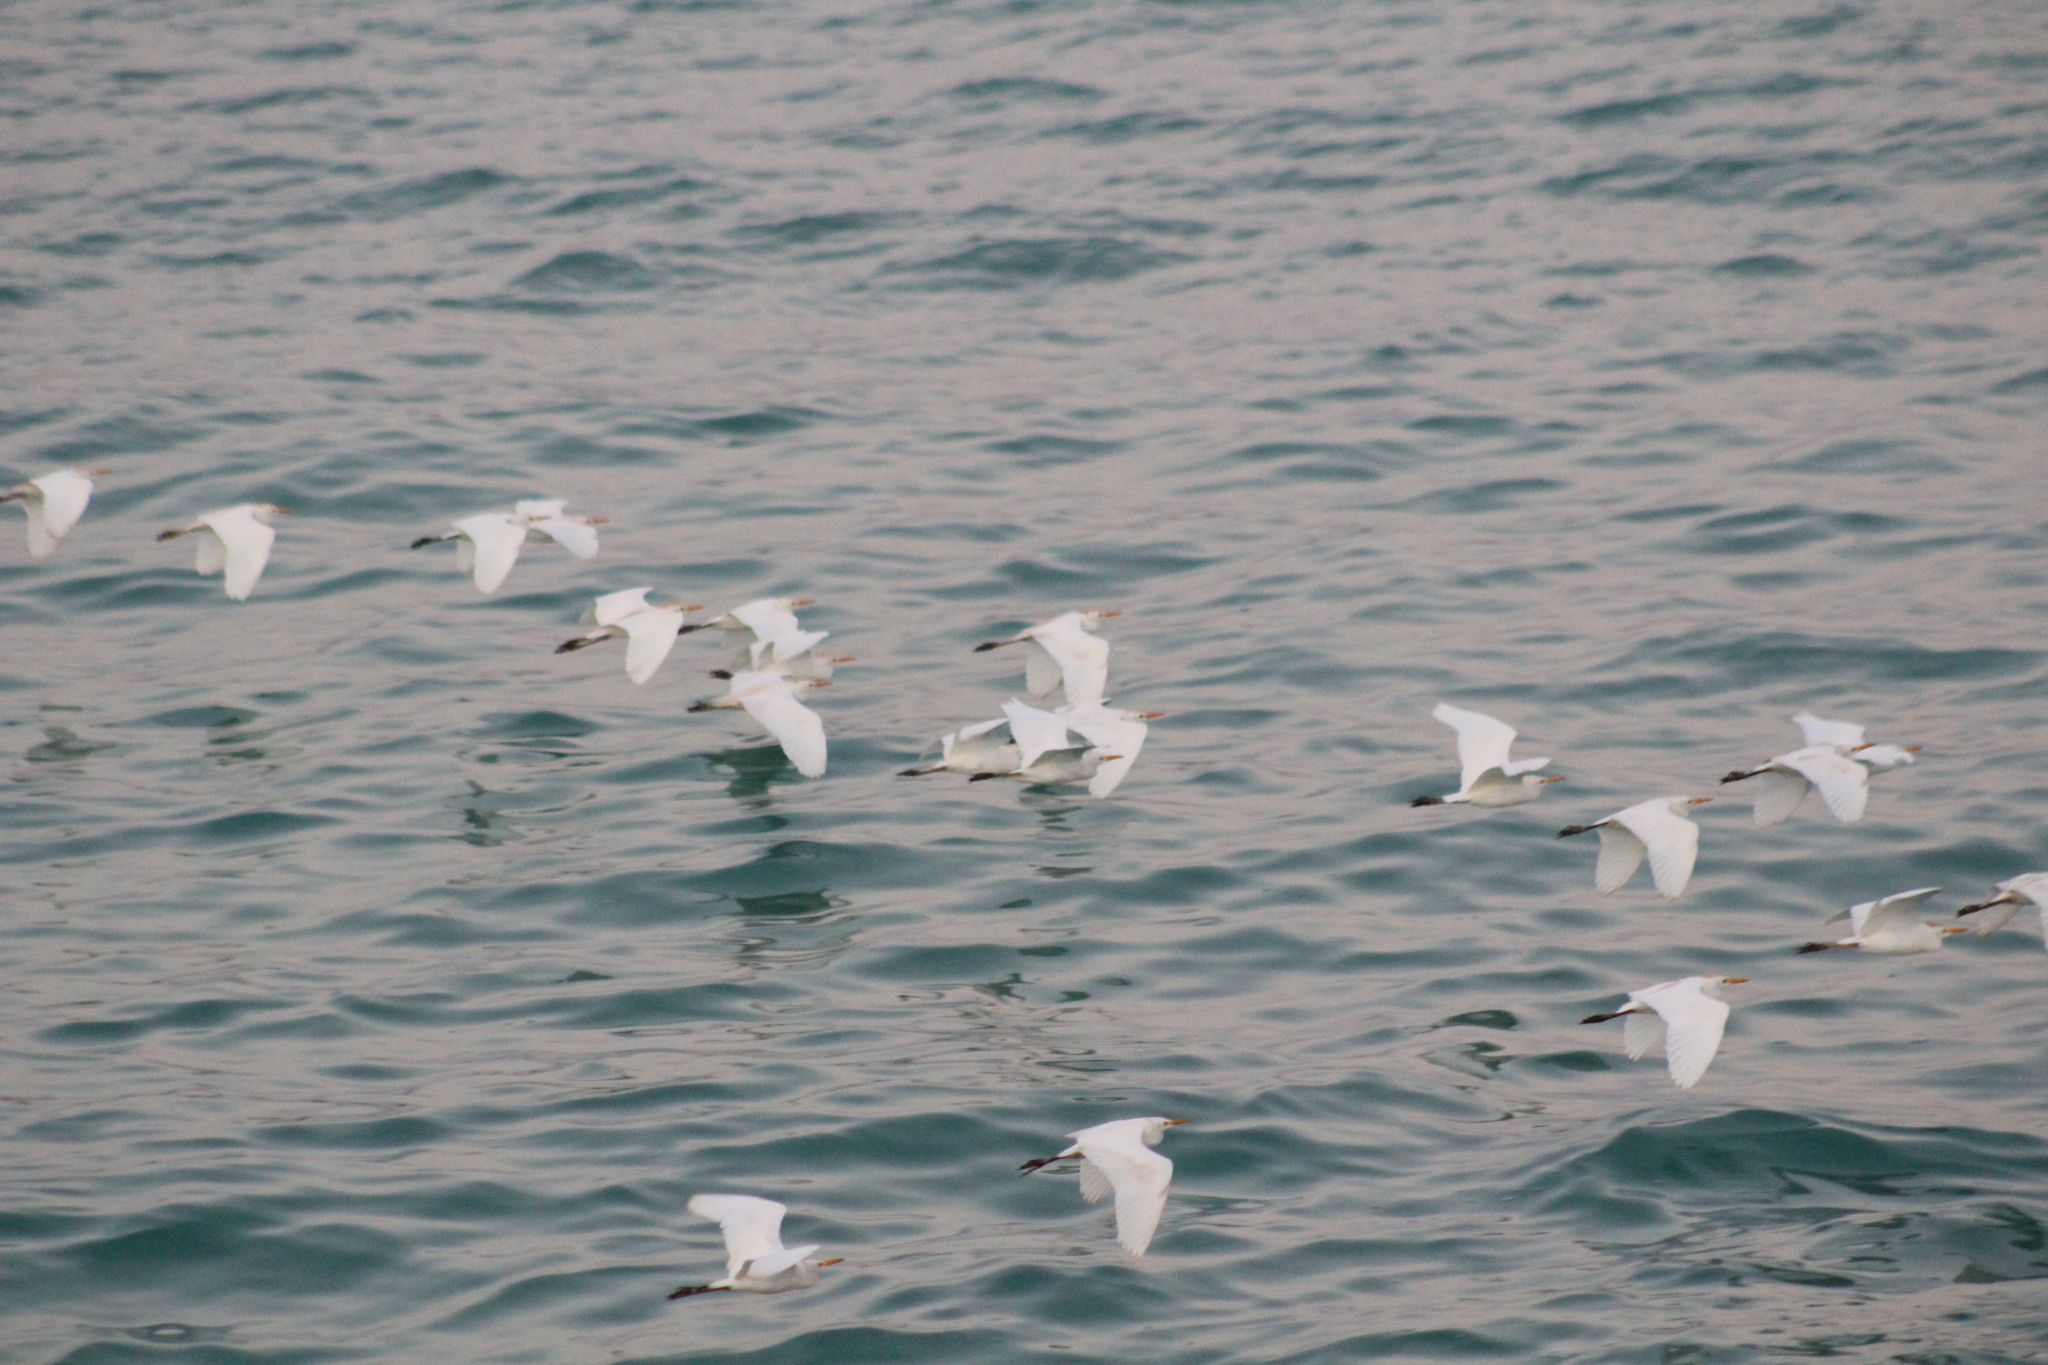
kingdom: Animalia
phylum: Chordata
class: Aves
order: Pelecaniformes
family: Ardeidae
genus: Bubulcus
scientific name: Bubulcus ibis
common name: Cattle egret
